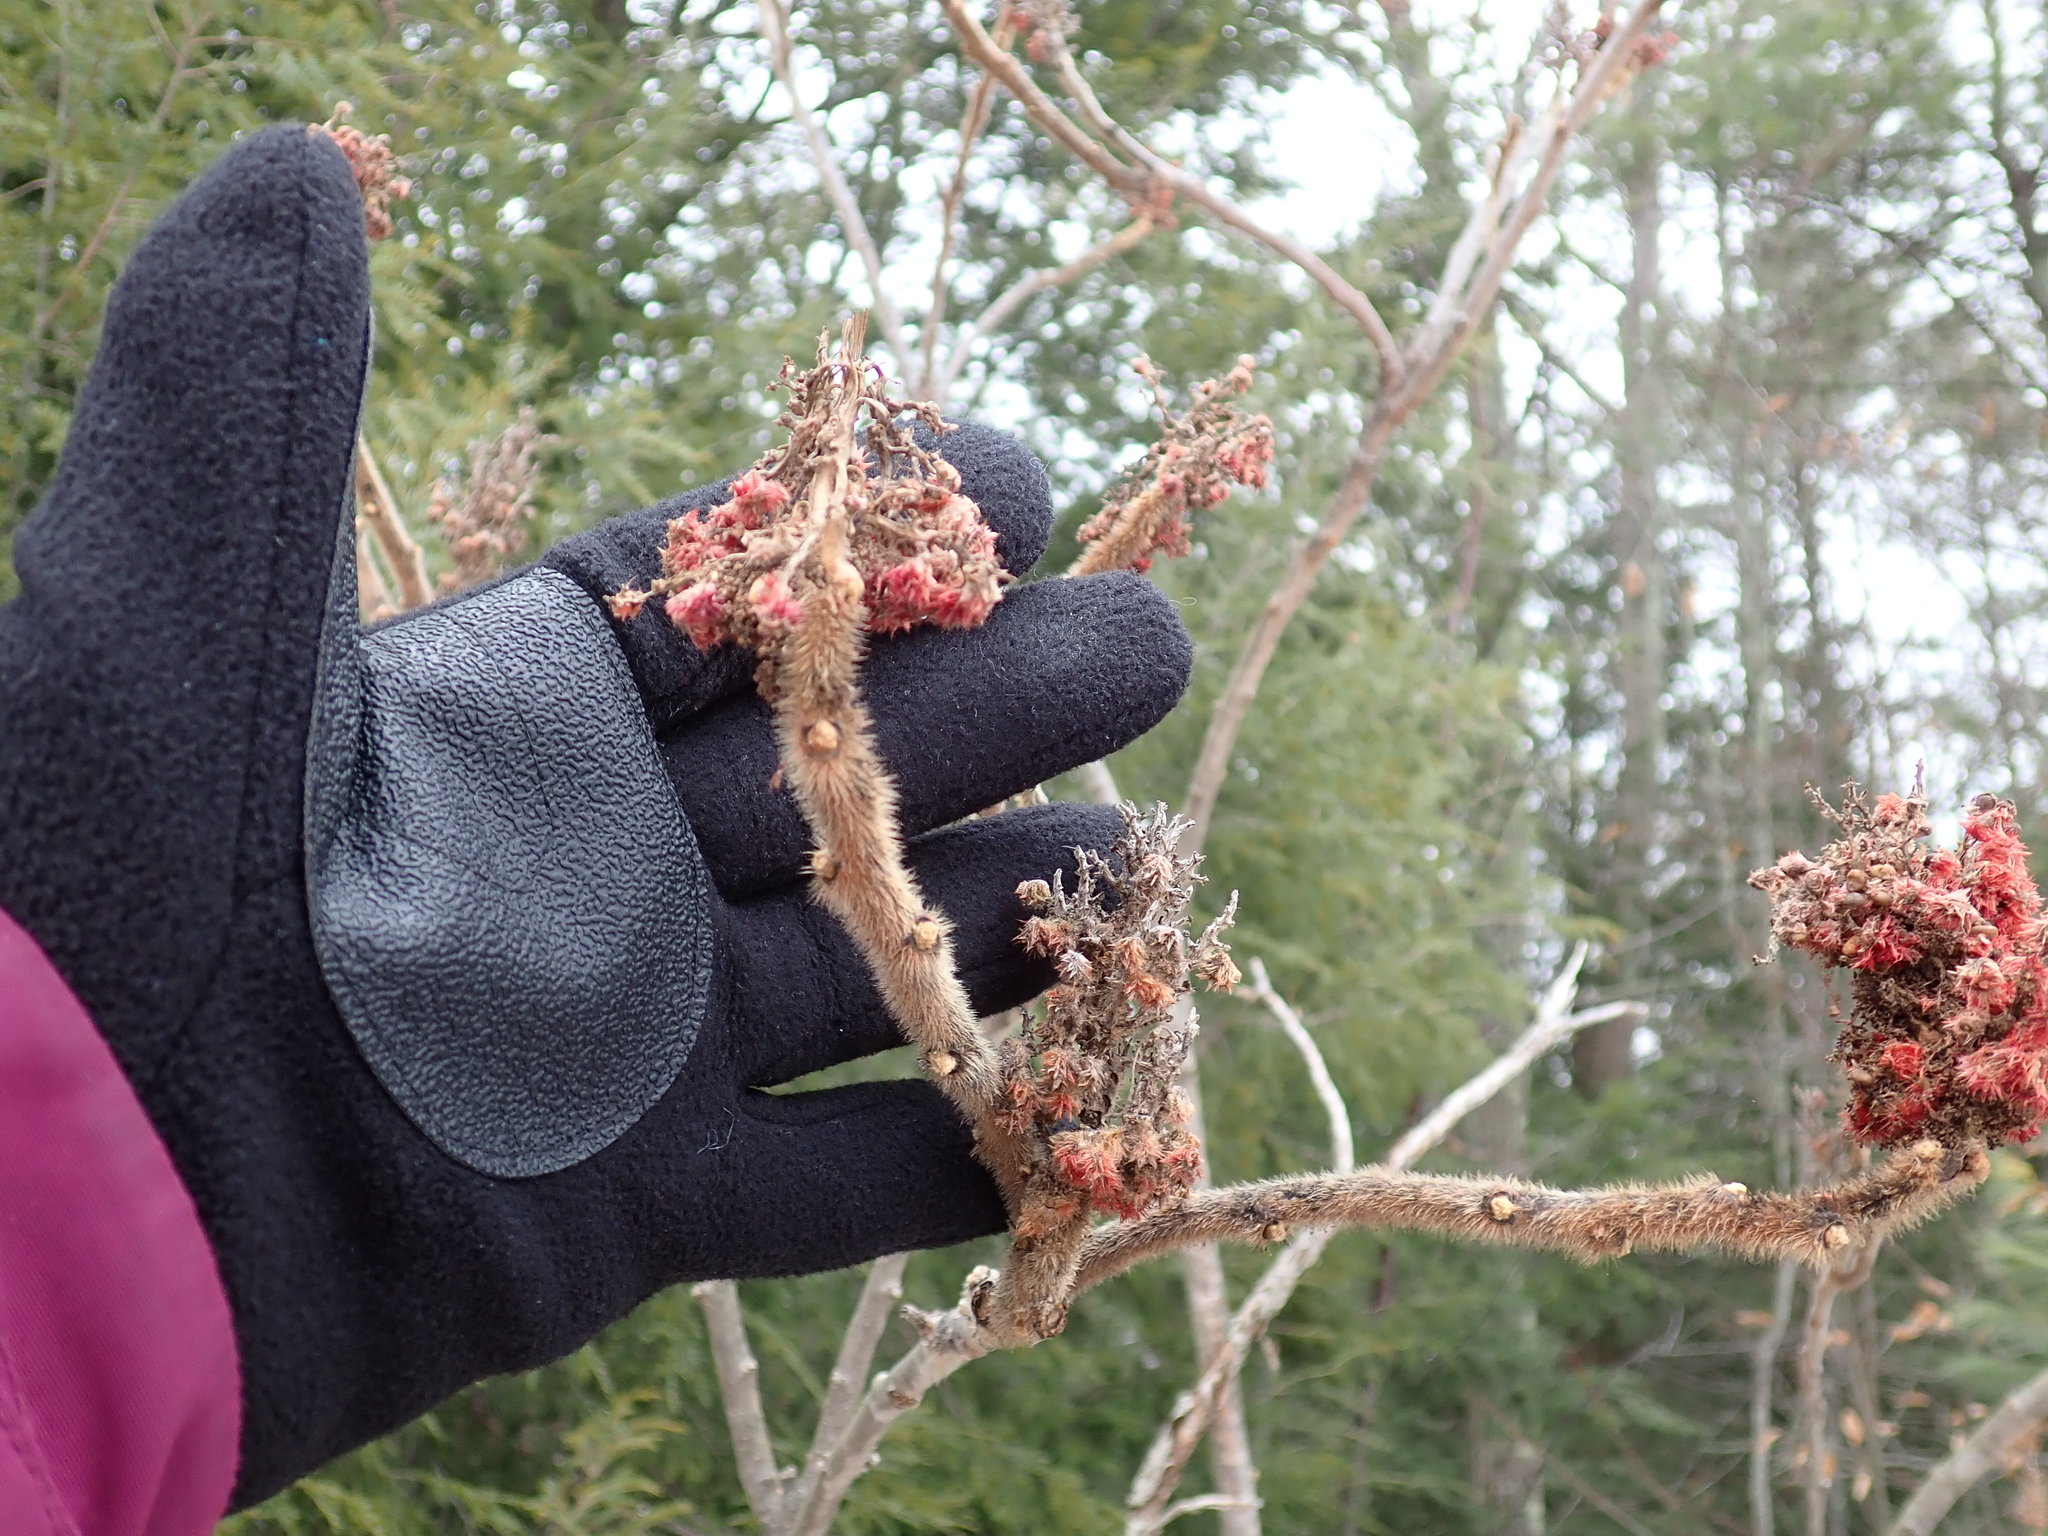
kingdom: Plantae
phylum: Tracheophyta
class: Magnoliopsida
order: Sapindales
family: Anacardiaceae
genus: Rhus
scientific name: Rhus typhina
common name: Staghorn sumac
